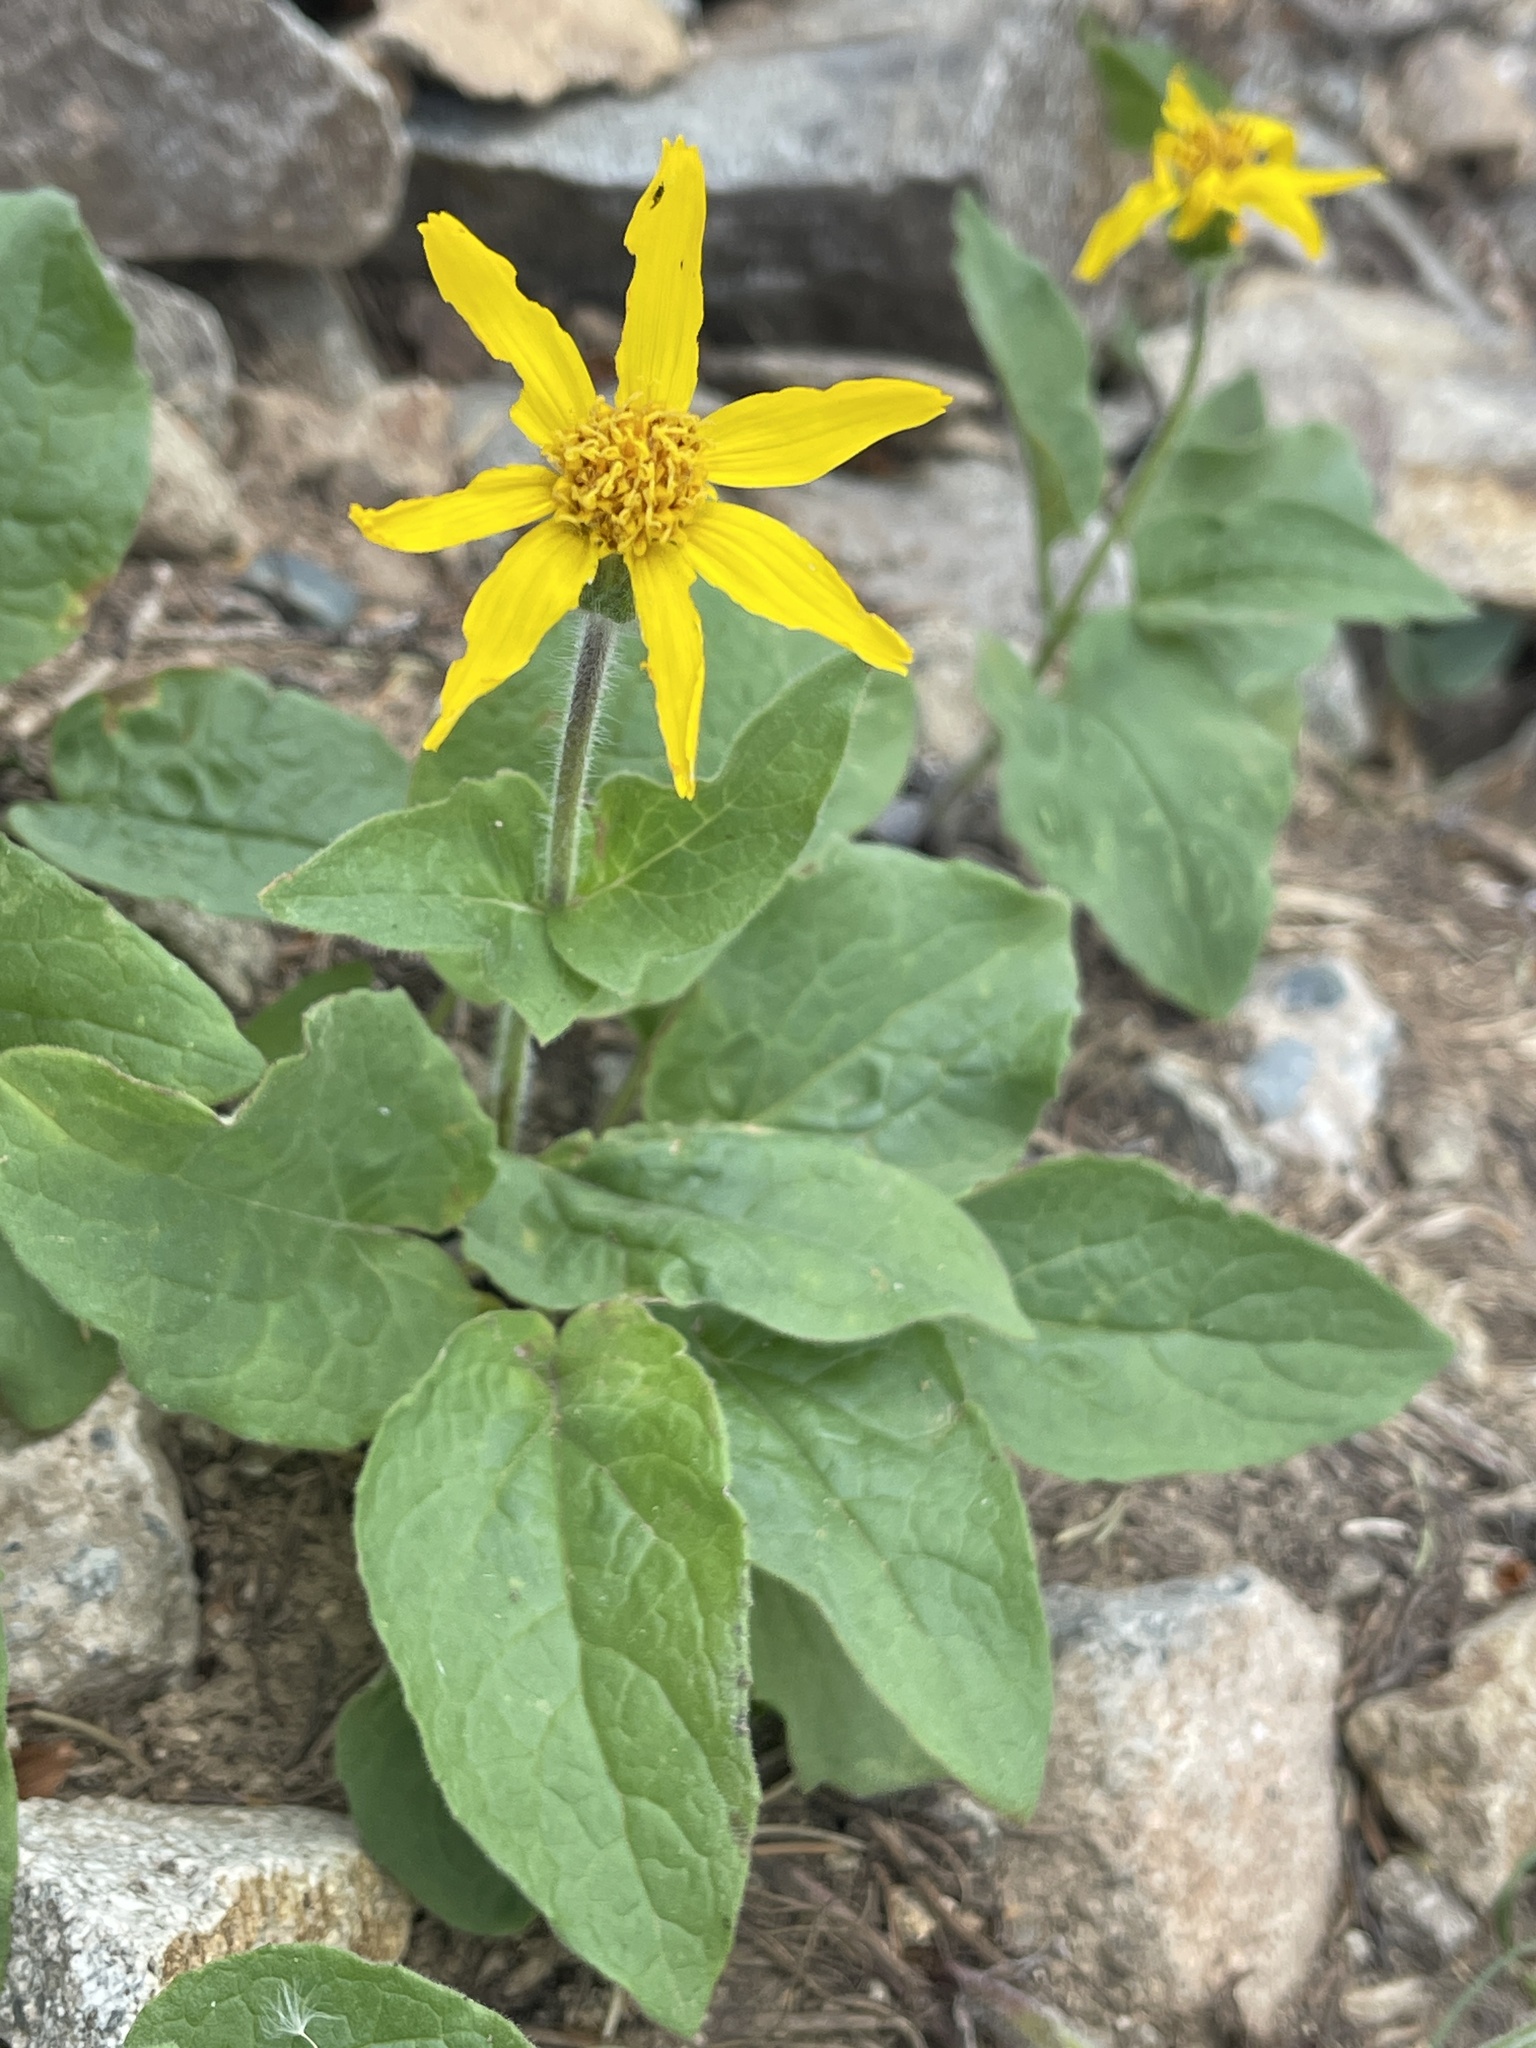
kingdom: Plantae
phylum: Tracheophyta
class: Magnoliopsida
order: Asterales
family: Asteraceae
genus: Arnica
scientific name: Arnica cordifolia
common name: Heart-leaf arnica
